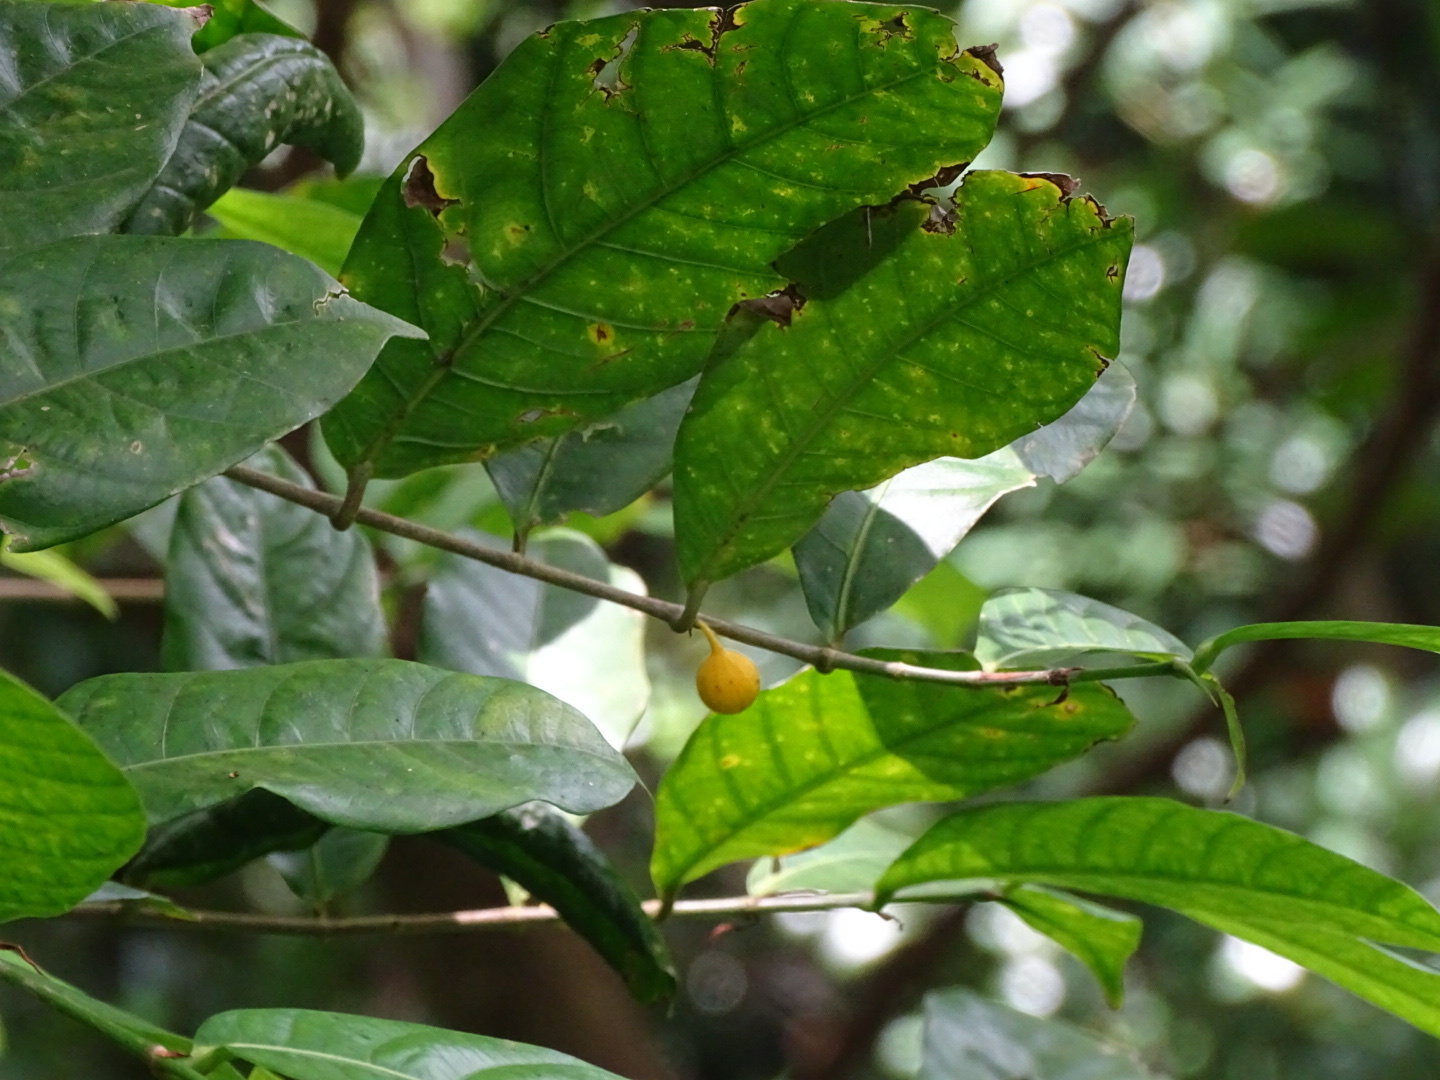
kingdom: Plantae
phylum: Tracheophyta
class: Magnoliopsida
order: Rosales
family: Moraceae
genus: Ficus
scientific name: Ficus tinctoria
